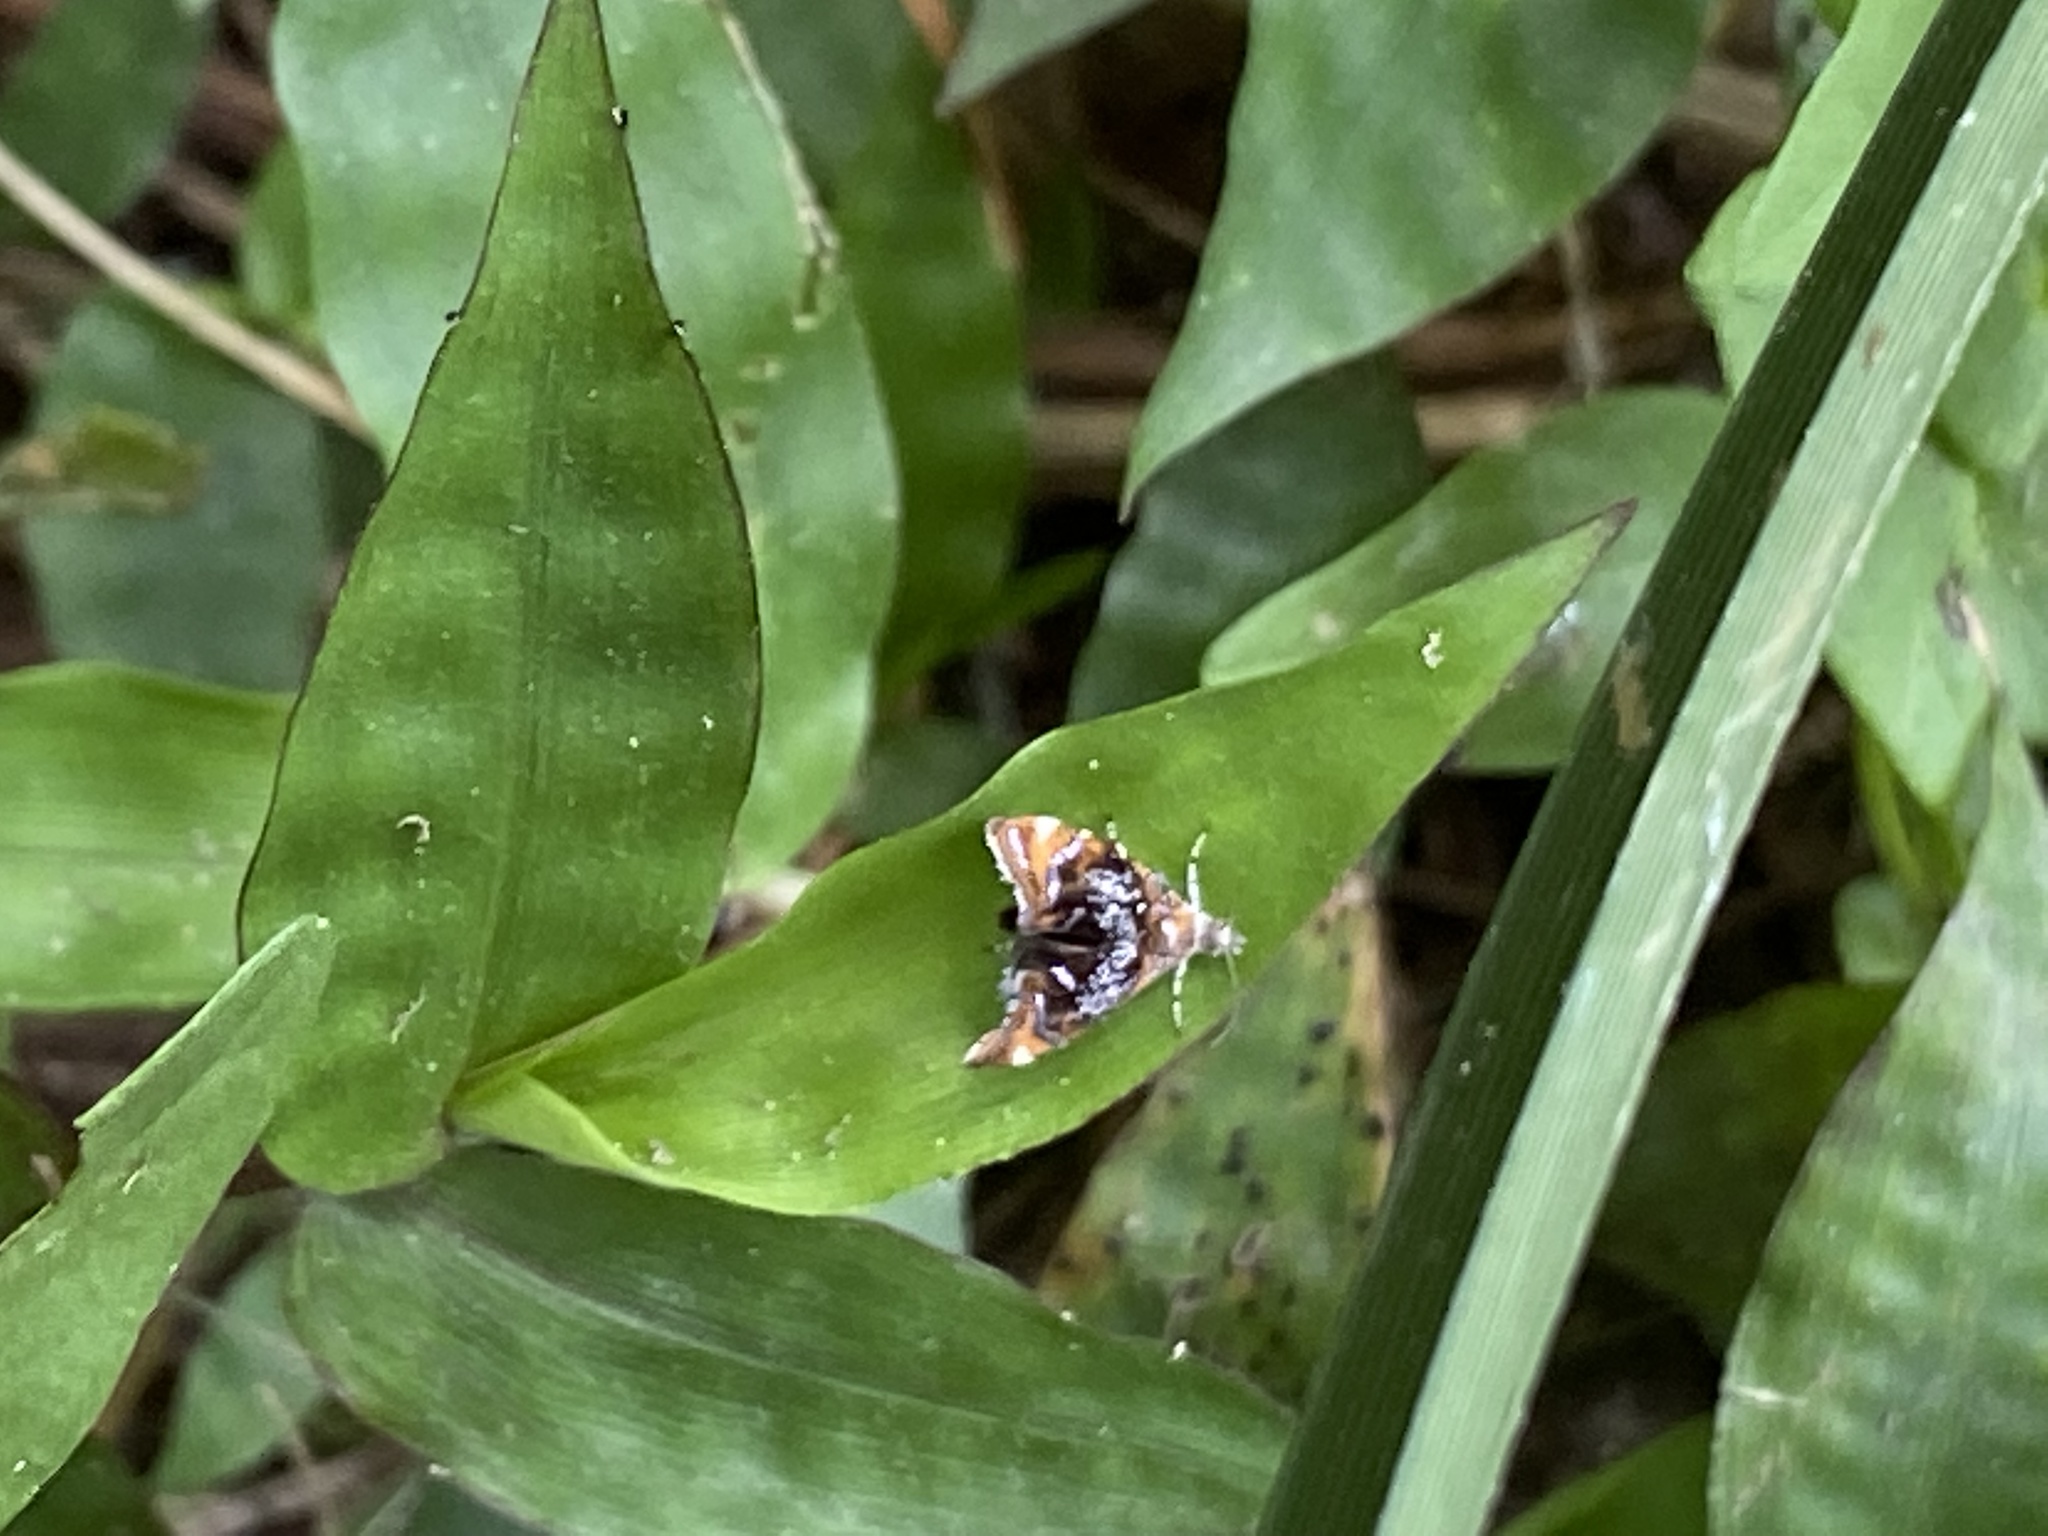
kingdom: Animalia
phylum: Arthropoda
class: Insecta
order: Lepidoptera
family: Choreutidae
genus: Prochoreutis
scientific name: Prochoreutis inflatella
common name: Skullcap skeletonizer moth
